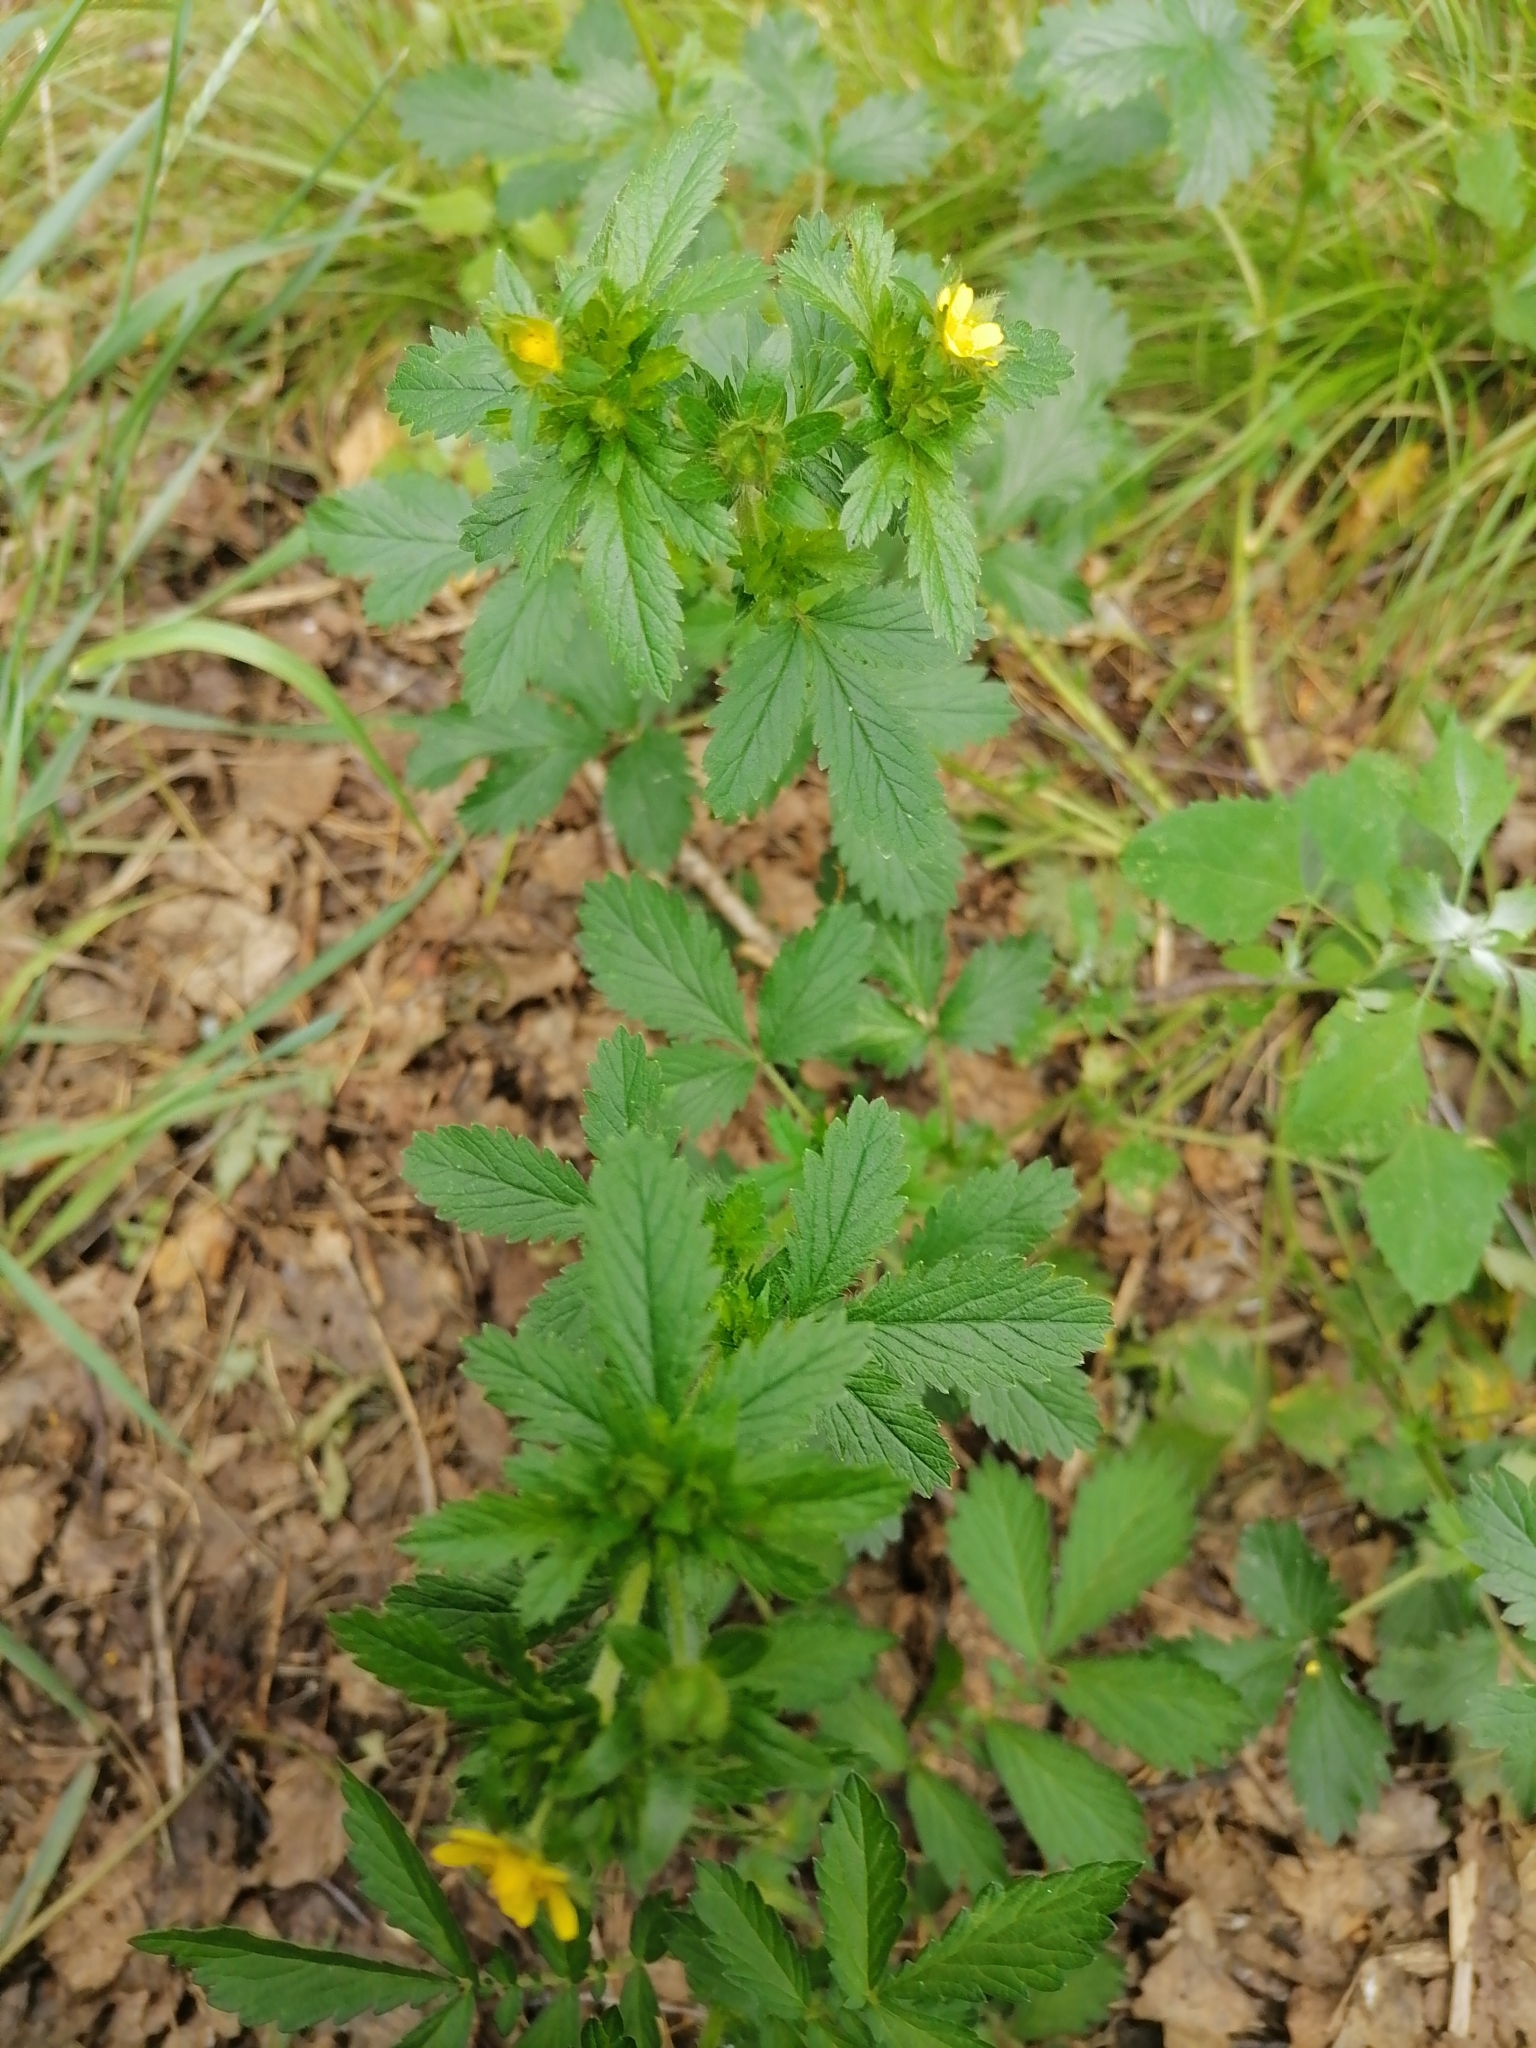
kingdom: Plantae
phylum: Tracheophyta
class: Magnoliopsida
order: Rosales
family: Rosaceae
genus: Potentilla
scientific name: Potentilla norvegica
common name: Ternate-leaved cinquefoil
